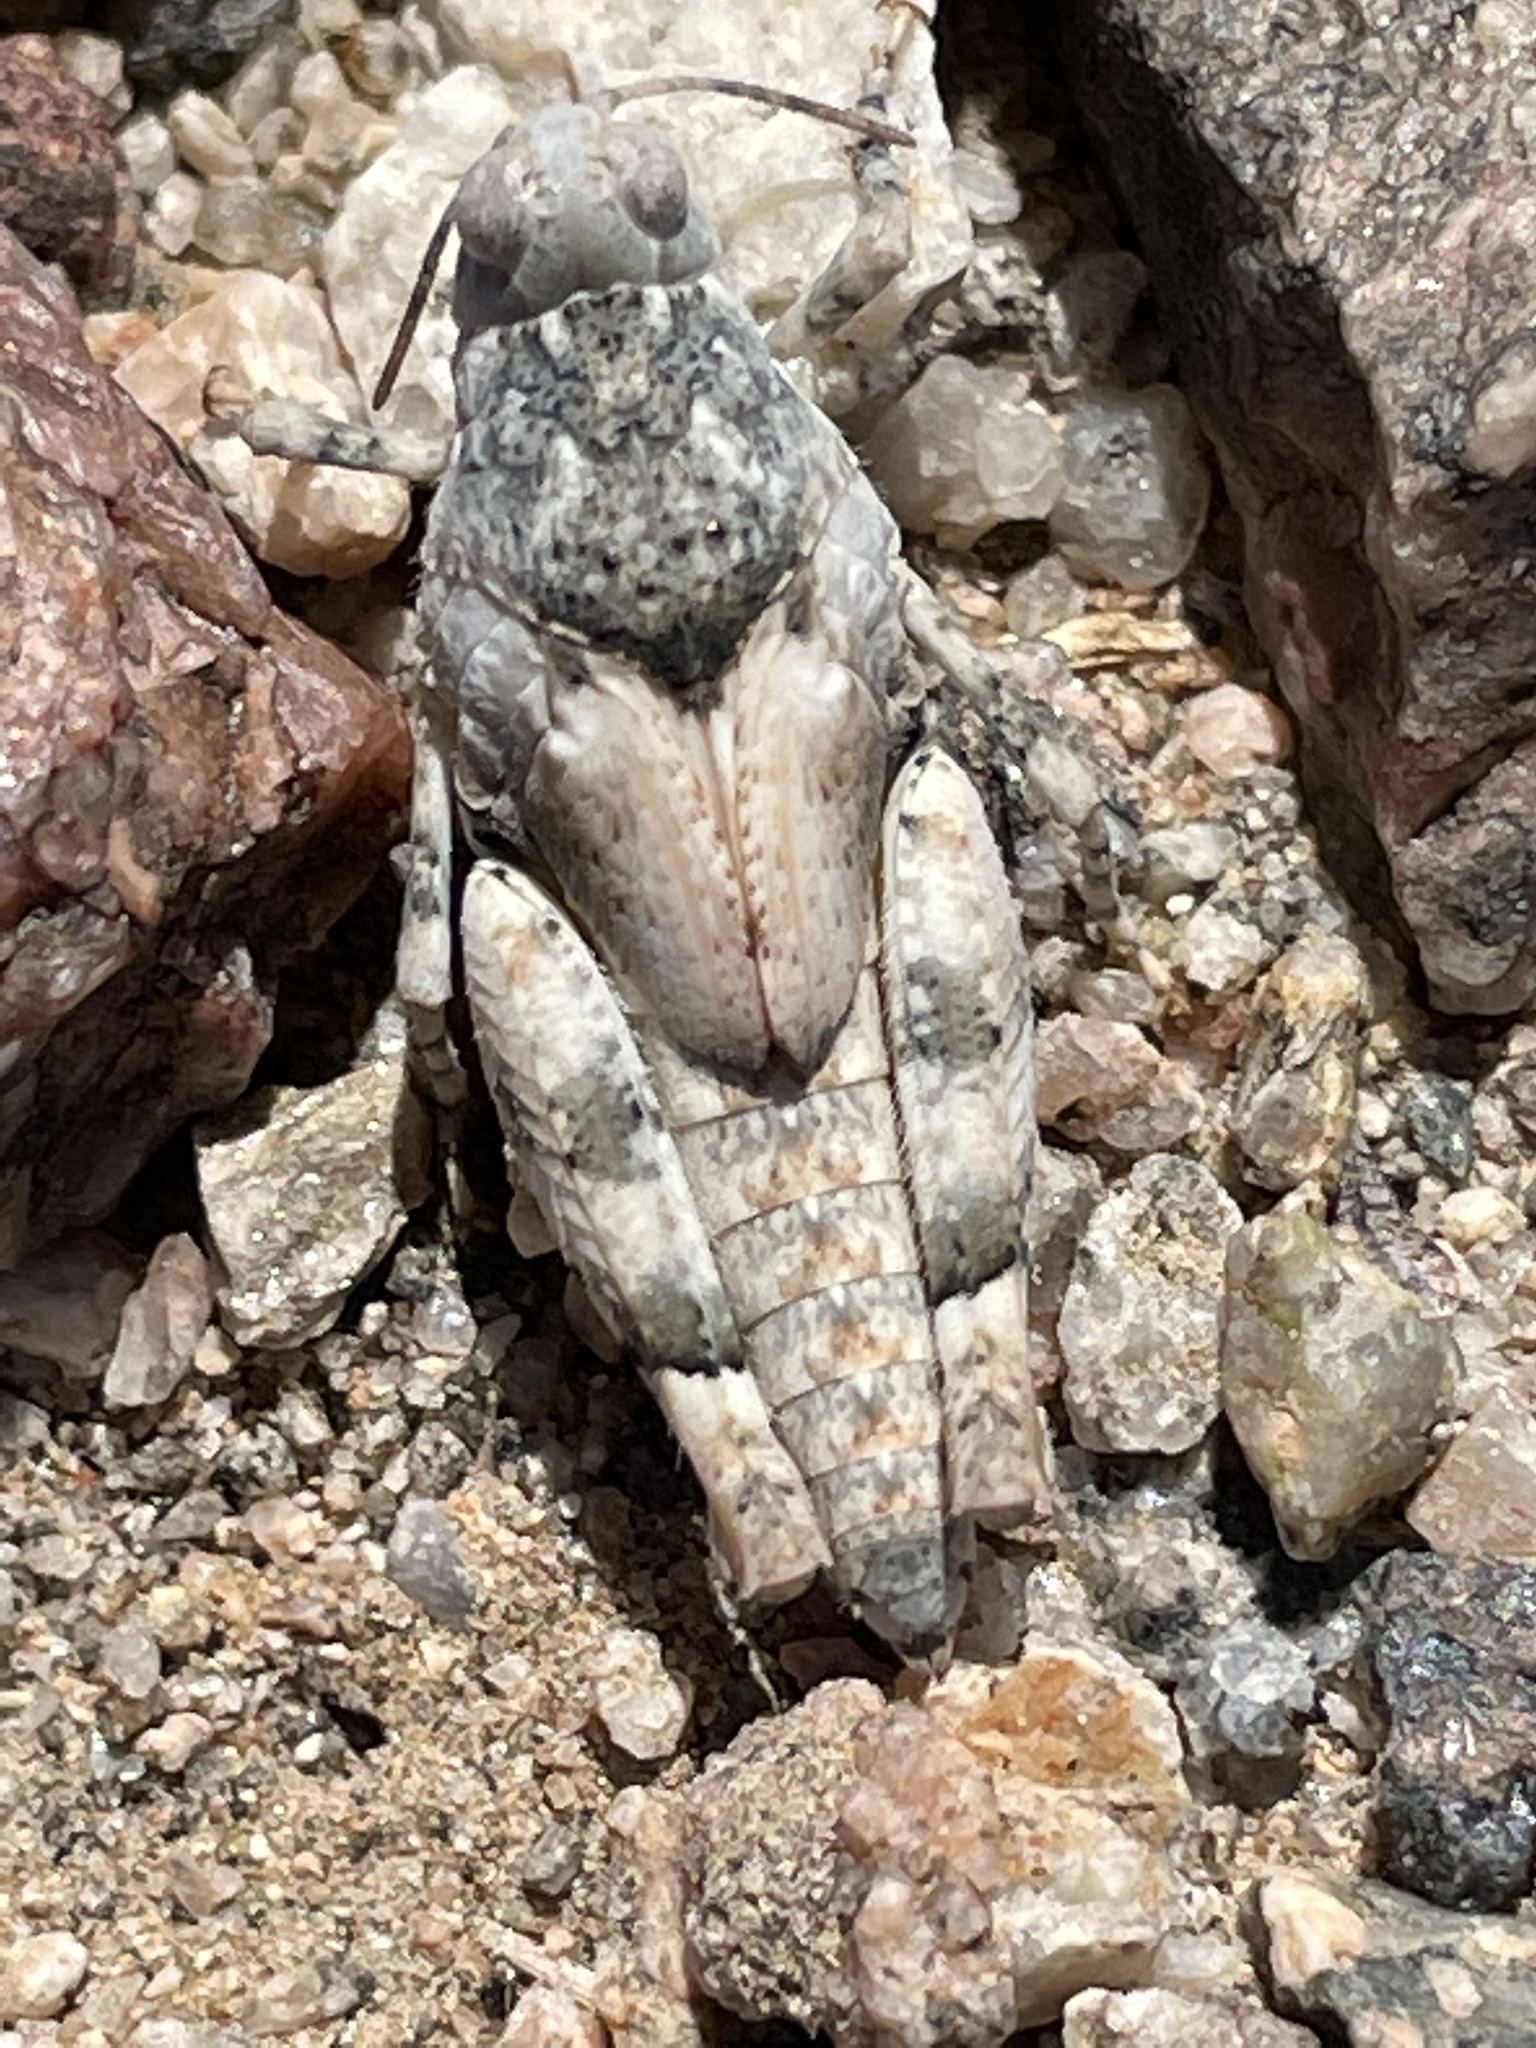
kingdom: Animalia
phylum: Arthropoda
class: Insecta
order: Orthoptera
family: Acrididae
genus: Cibolacris
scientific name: Cibolacris parviceps
